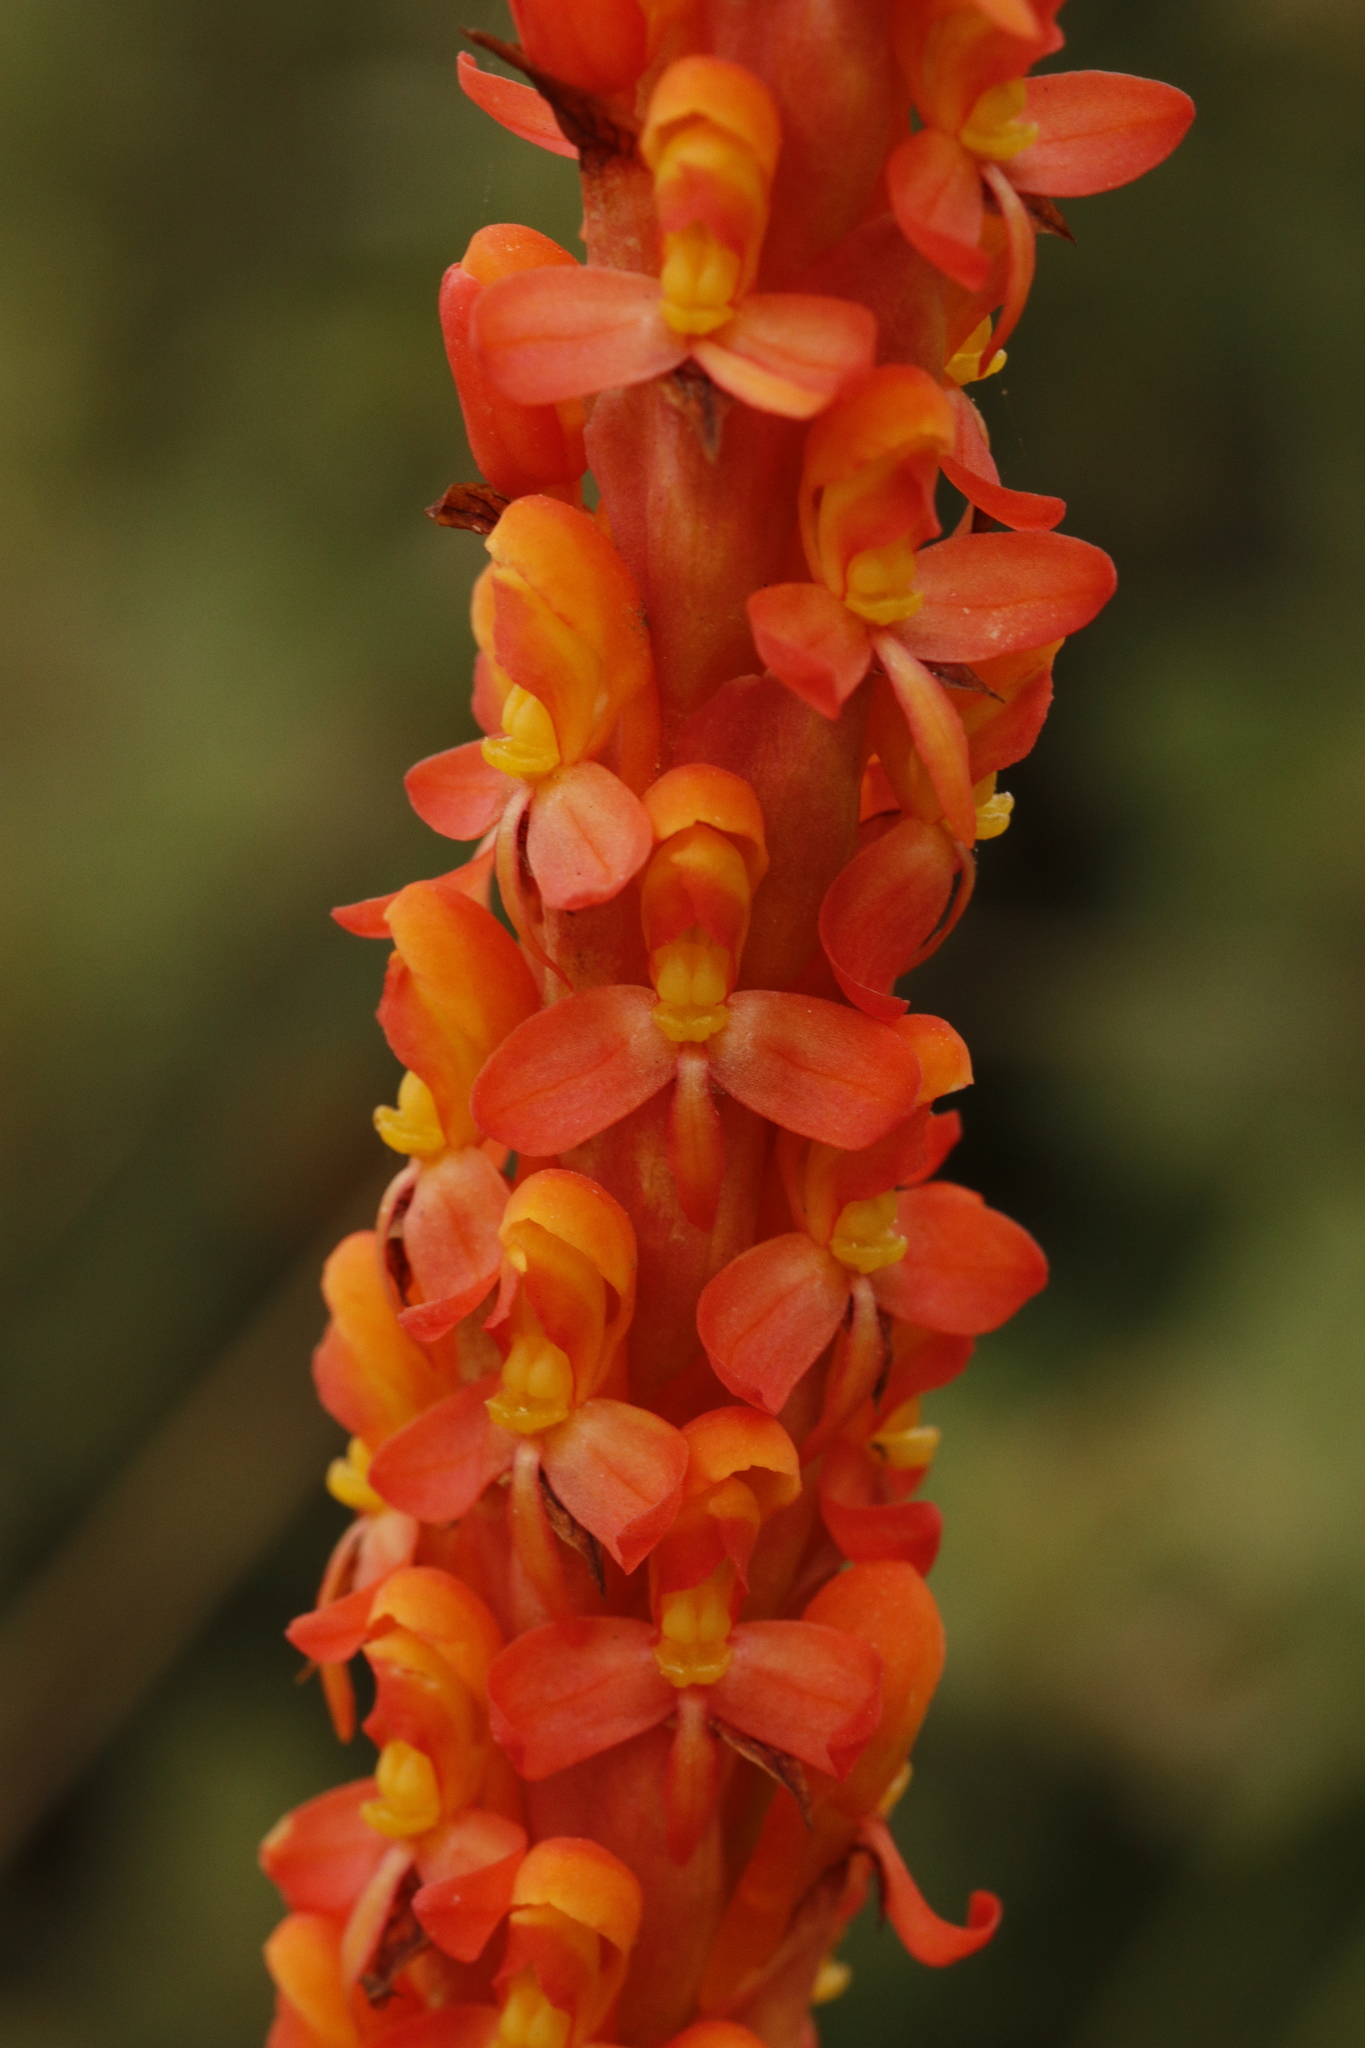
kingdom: Plantae
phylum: Tracheophyta
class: Liliopsida
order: Asparagales
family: Orchidaceae
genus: Disa
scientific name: Disa chrysostachya
